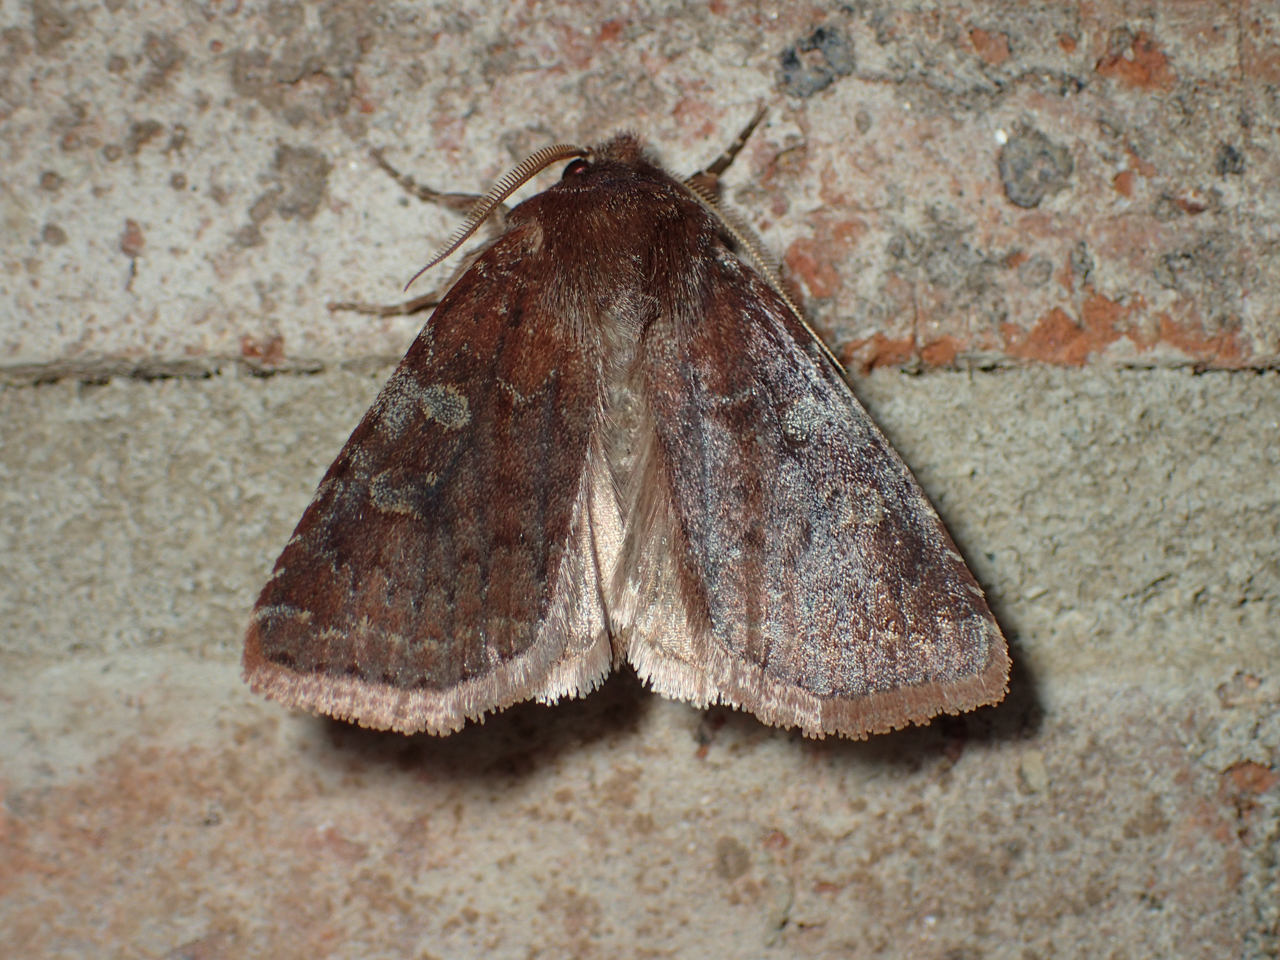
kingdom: Animalia
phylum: Arthropoda
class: Insecta
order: Lepidoptera
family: Noctuidae
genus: Cerastis
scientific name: Cerastis tenebrifera
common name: Reddish speckled dart
